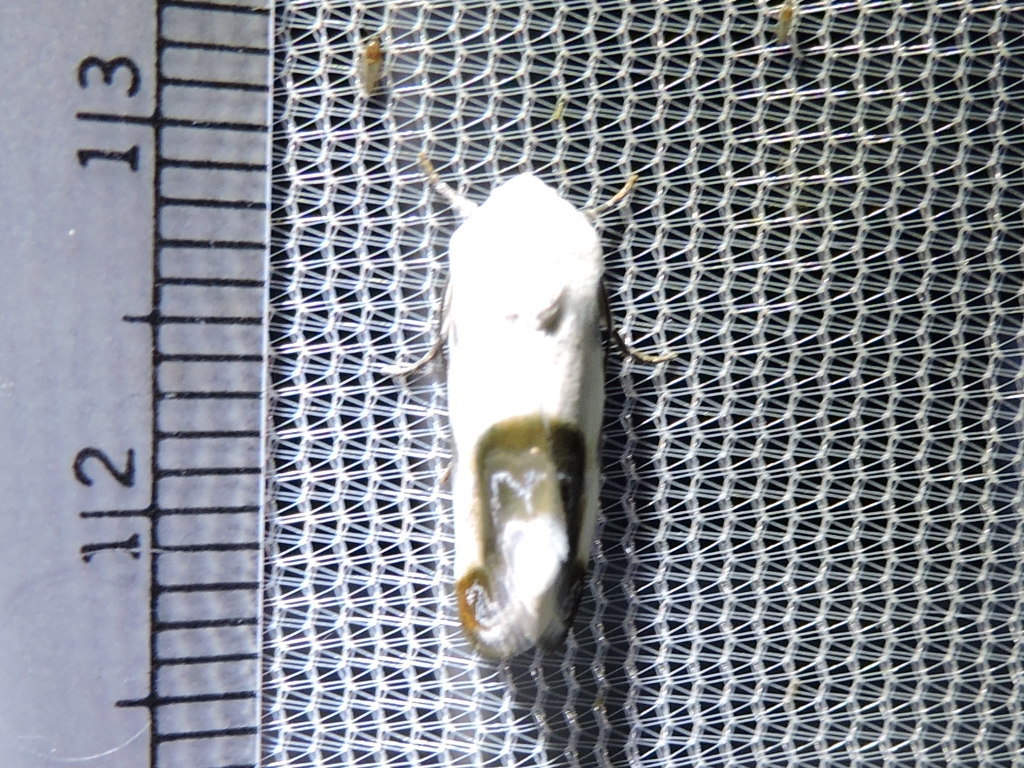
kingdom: Animalia
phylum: Arthropoda
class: Insecta
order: Lepidoptera
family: Noctuidae
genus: Acontia
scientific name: Acontia cretata
